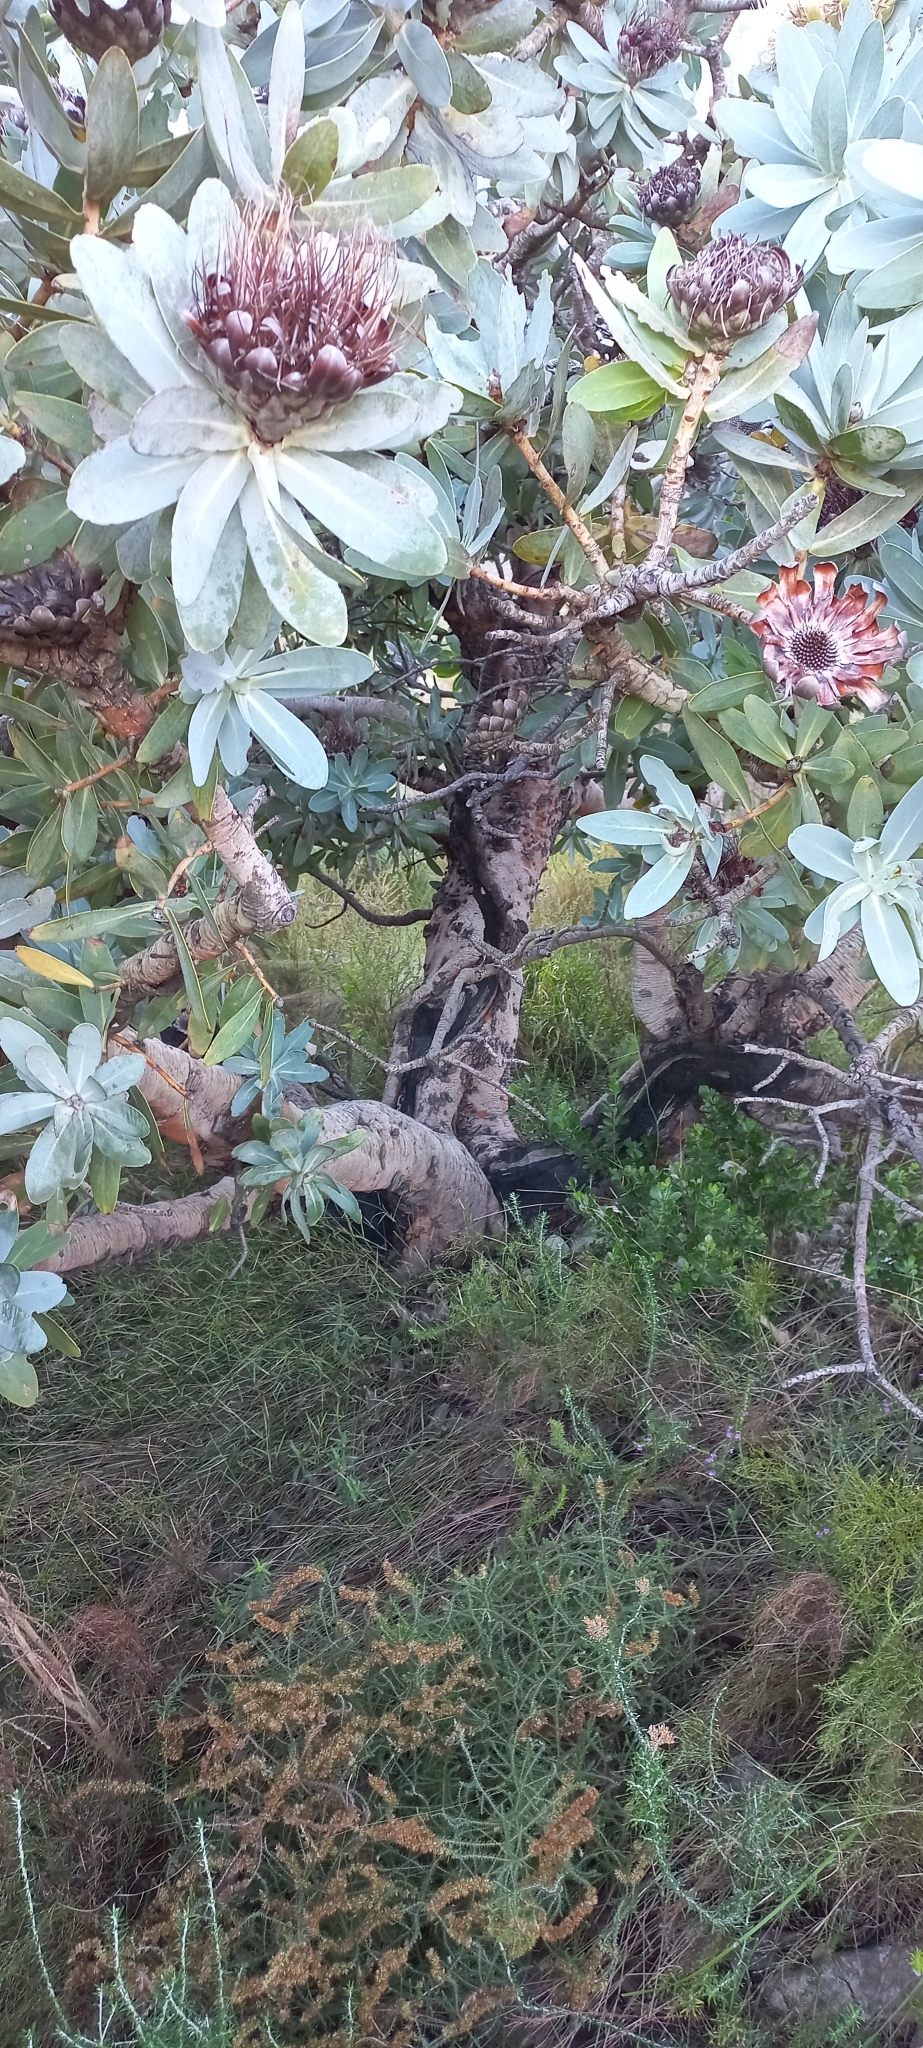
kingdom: Plantae
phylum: Tracheophyta
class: Magnoliopsida
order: Proteales
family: Proteaceae
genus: Protea
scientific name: Protea nitida
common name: Tree protea
